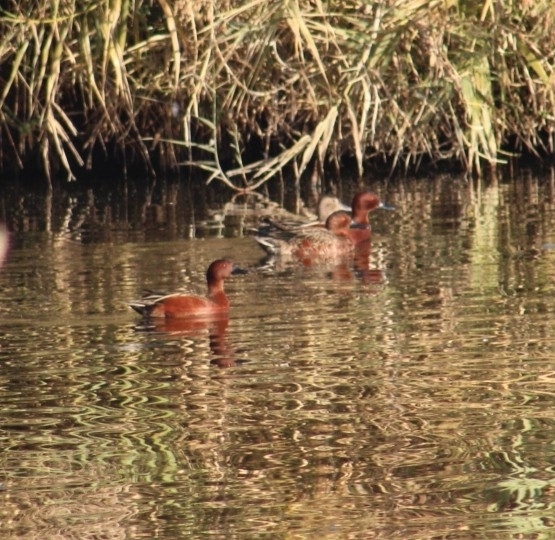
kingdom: Animalia
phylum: Chordata
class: Aves
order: Anseriformes
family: Anatidae
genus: Spatula
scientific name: Spatula cyanoptera
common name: Cinnamon teal
